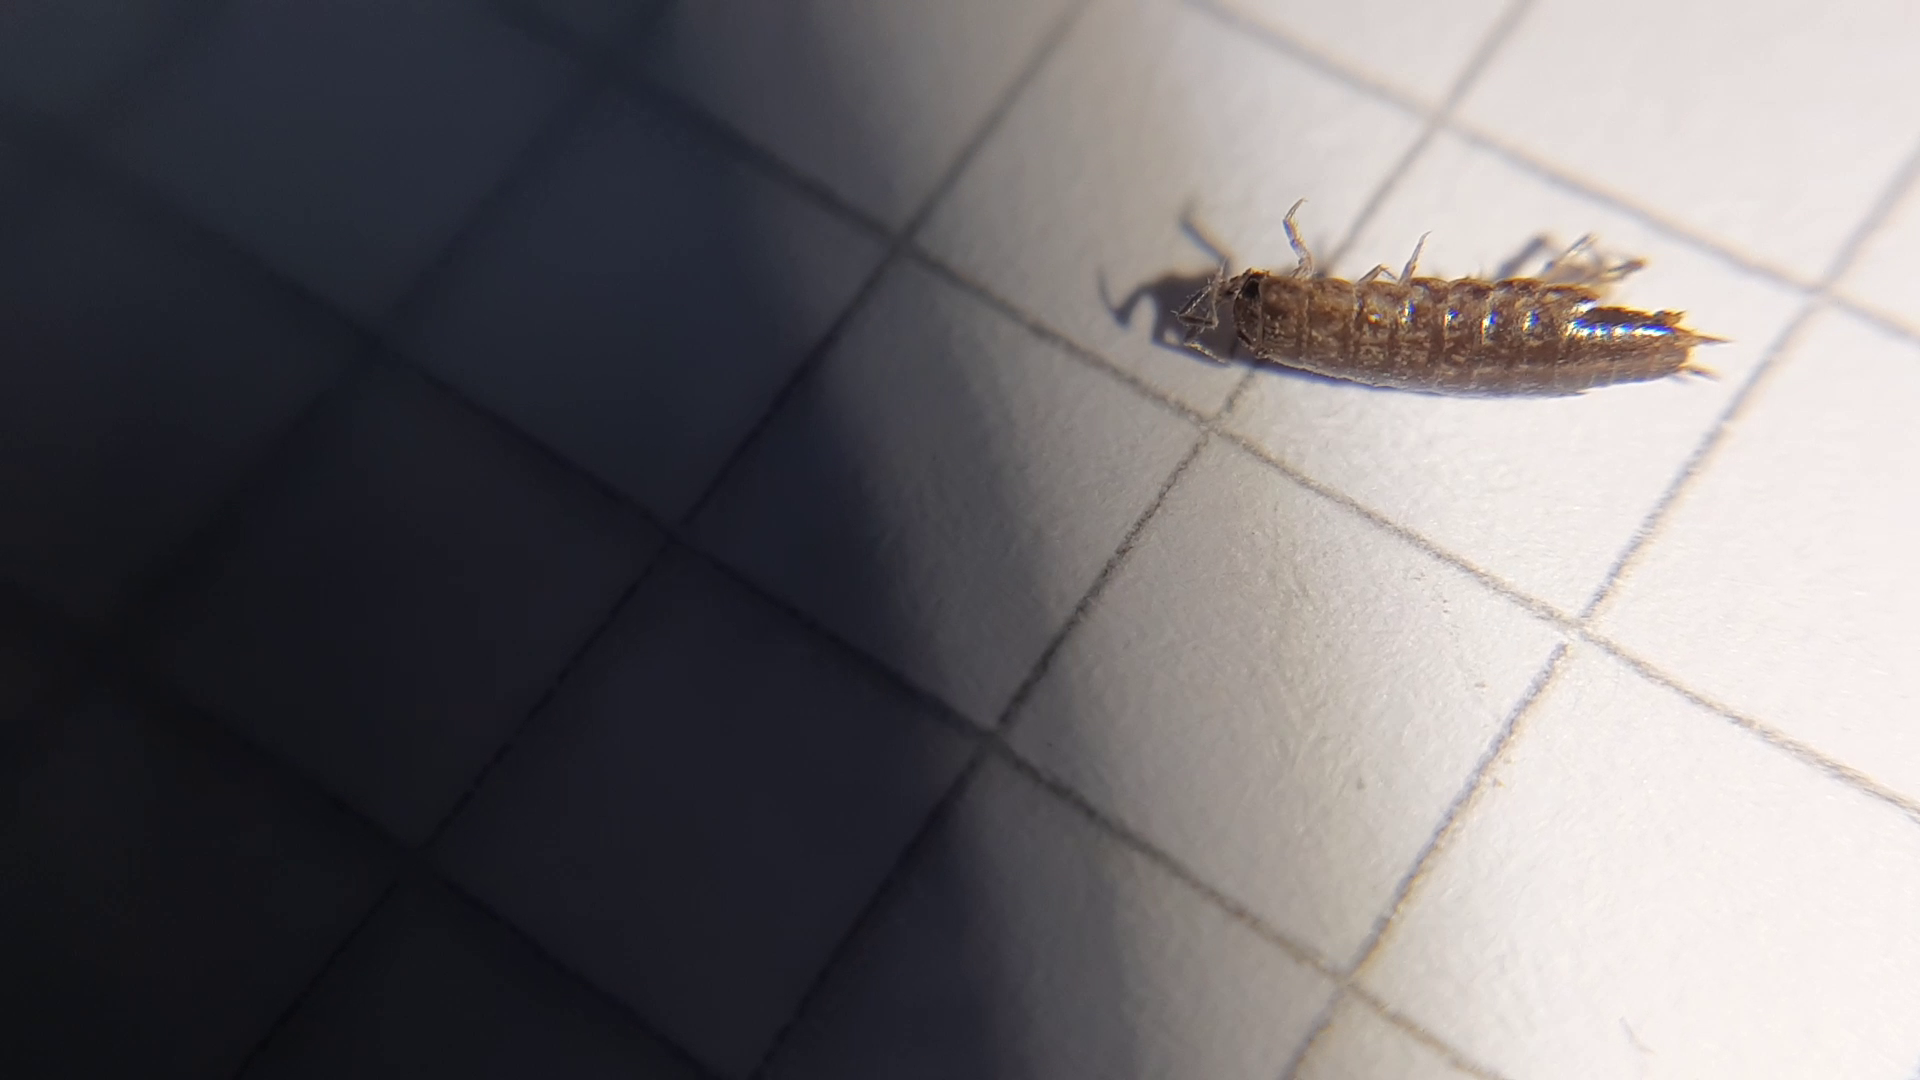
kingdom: Animalia
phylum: Arthropoda
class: Malacostraca
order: Isopoda
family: Philosciidae
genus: Chaetophiloscia
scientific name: Chaetophiloscia sicula
